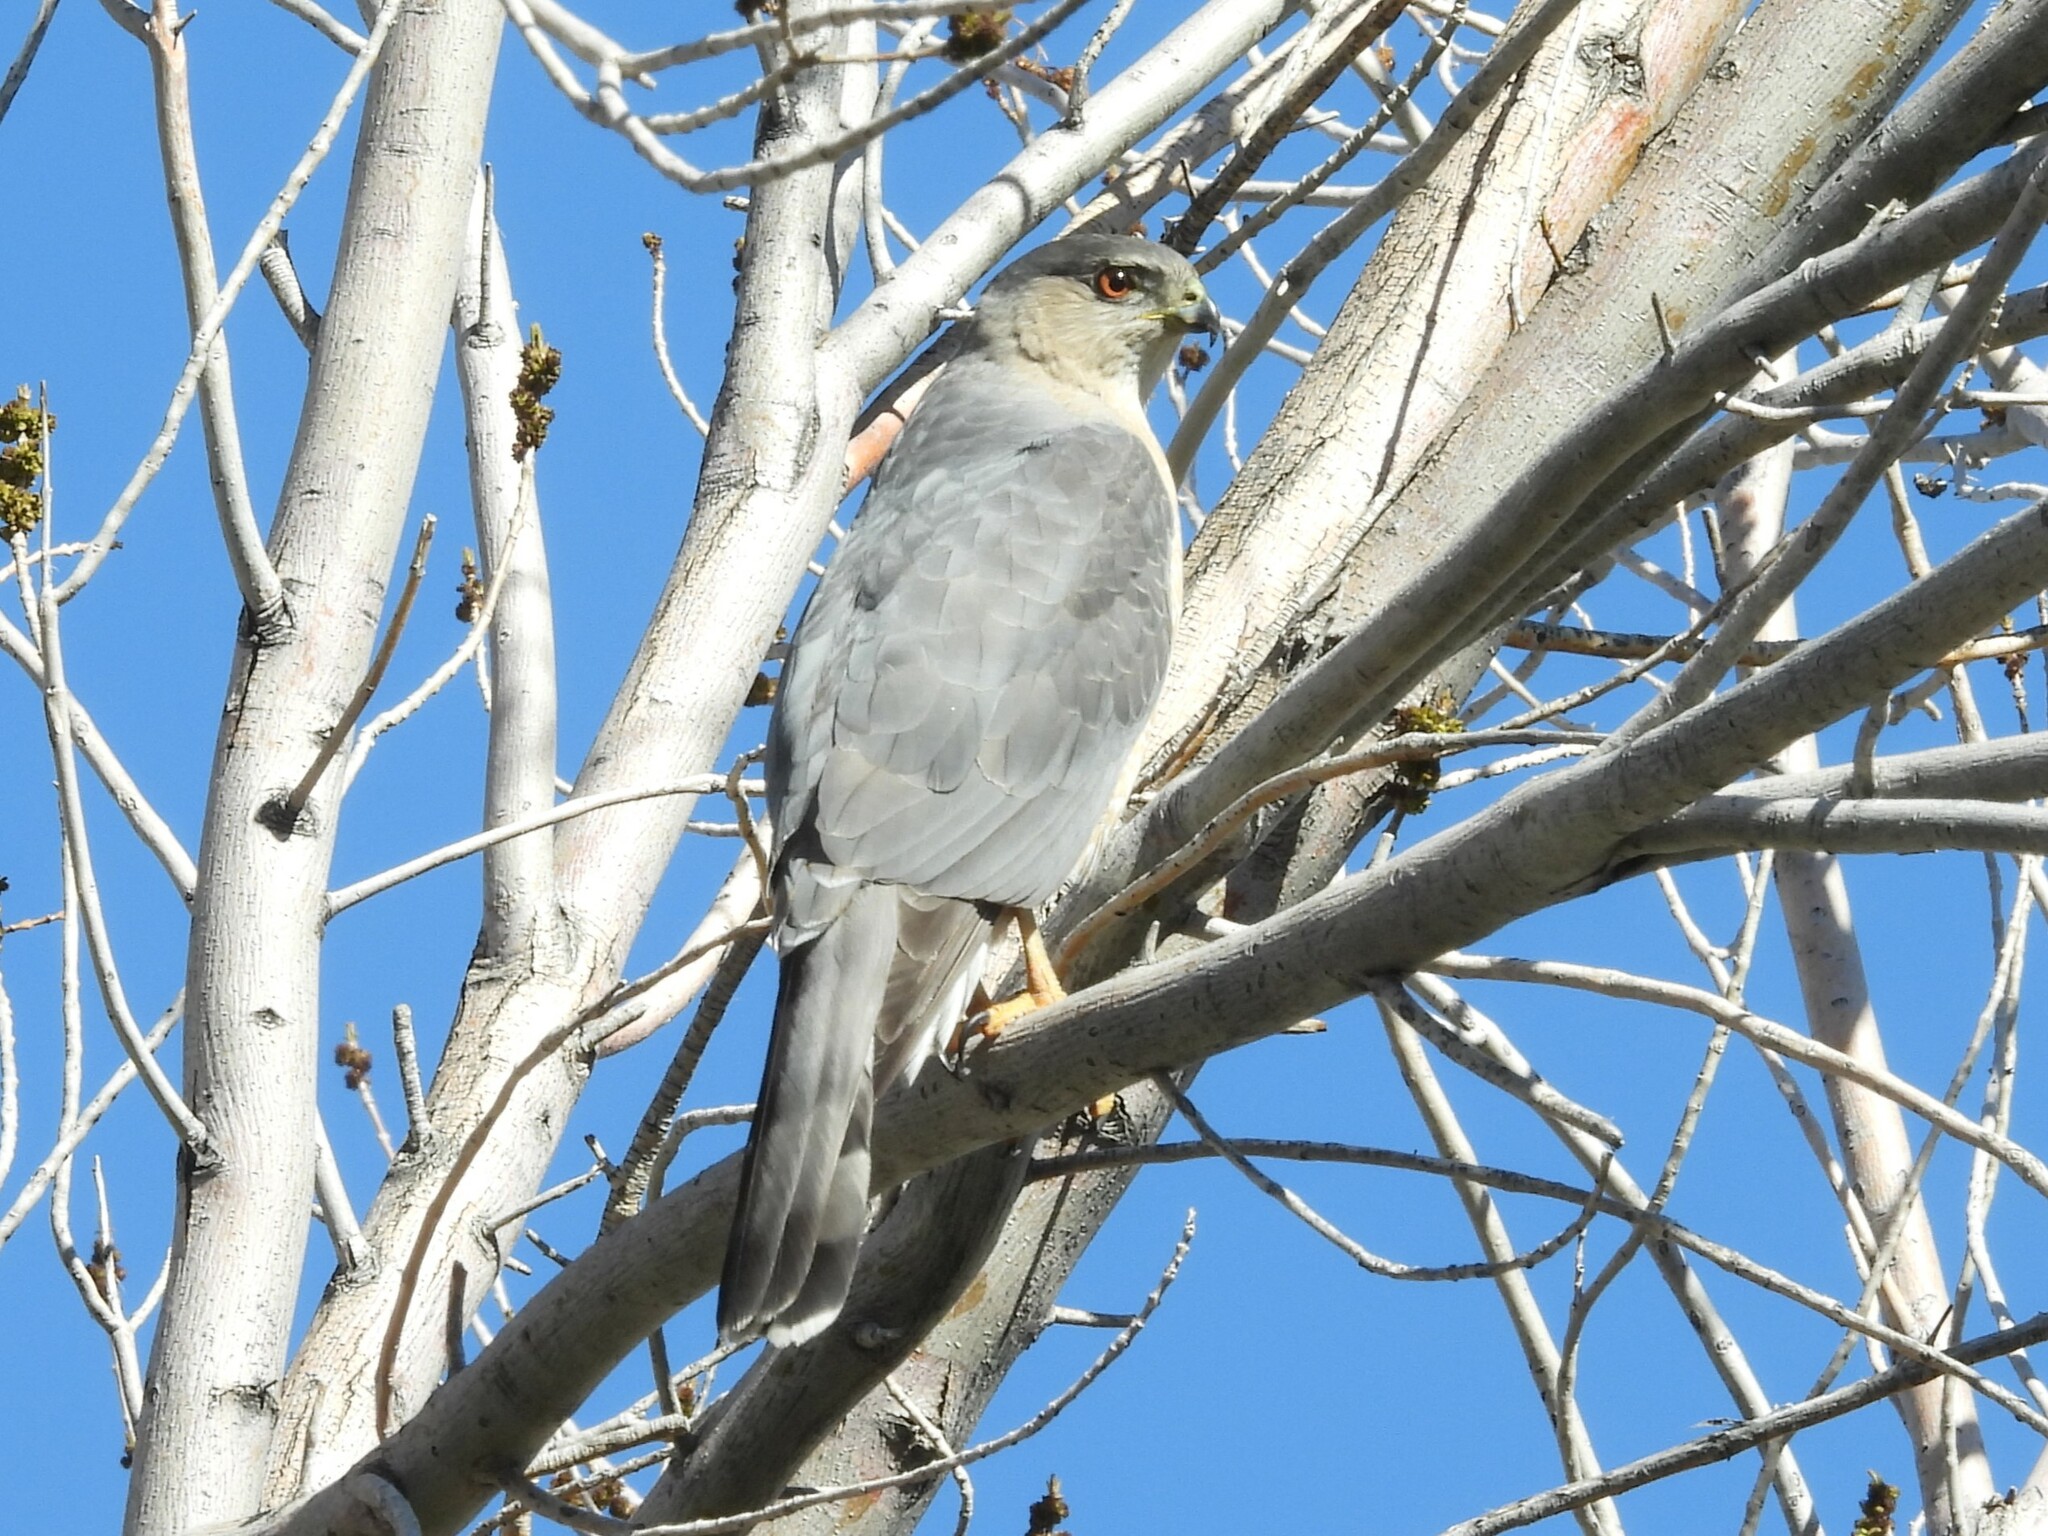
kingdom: Animalia
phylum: Chordata
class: Aves
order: Accipitriformes
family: Accipitridae
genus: Accipiter
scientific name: Accipiter cooperii
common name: Cooper's hawk
